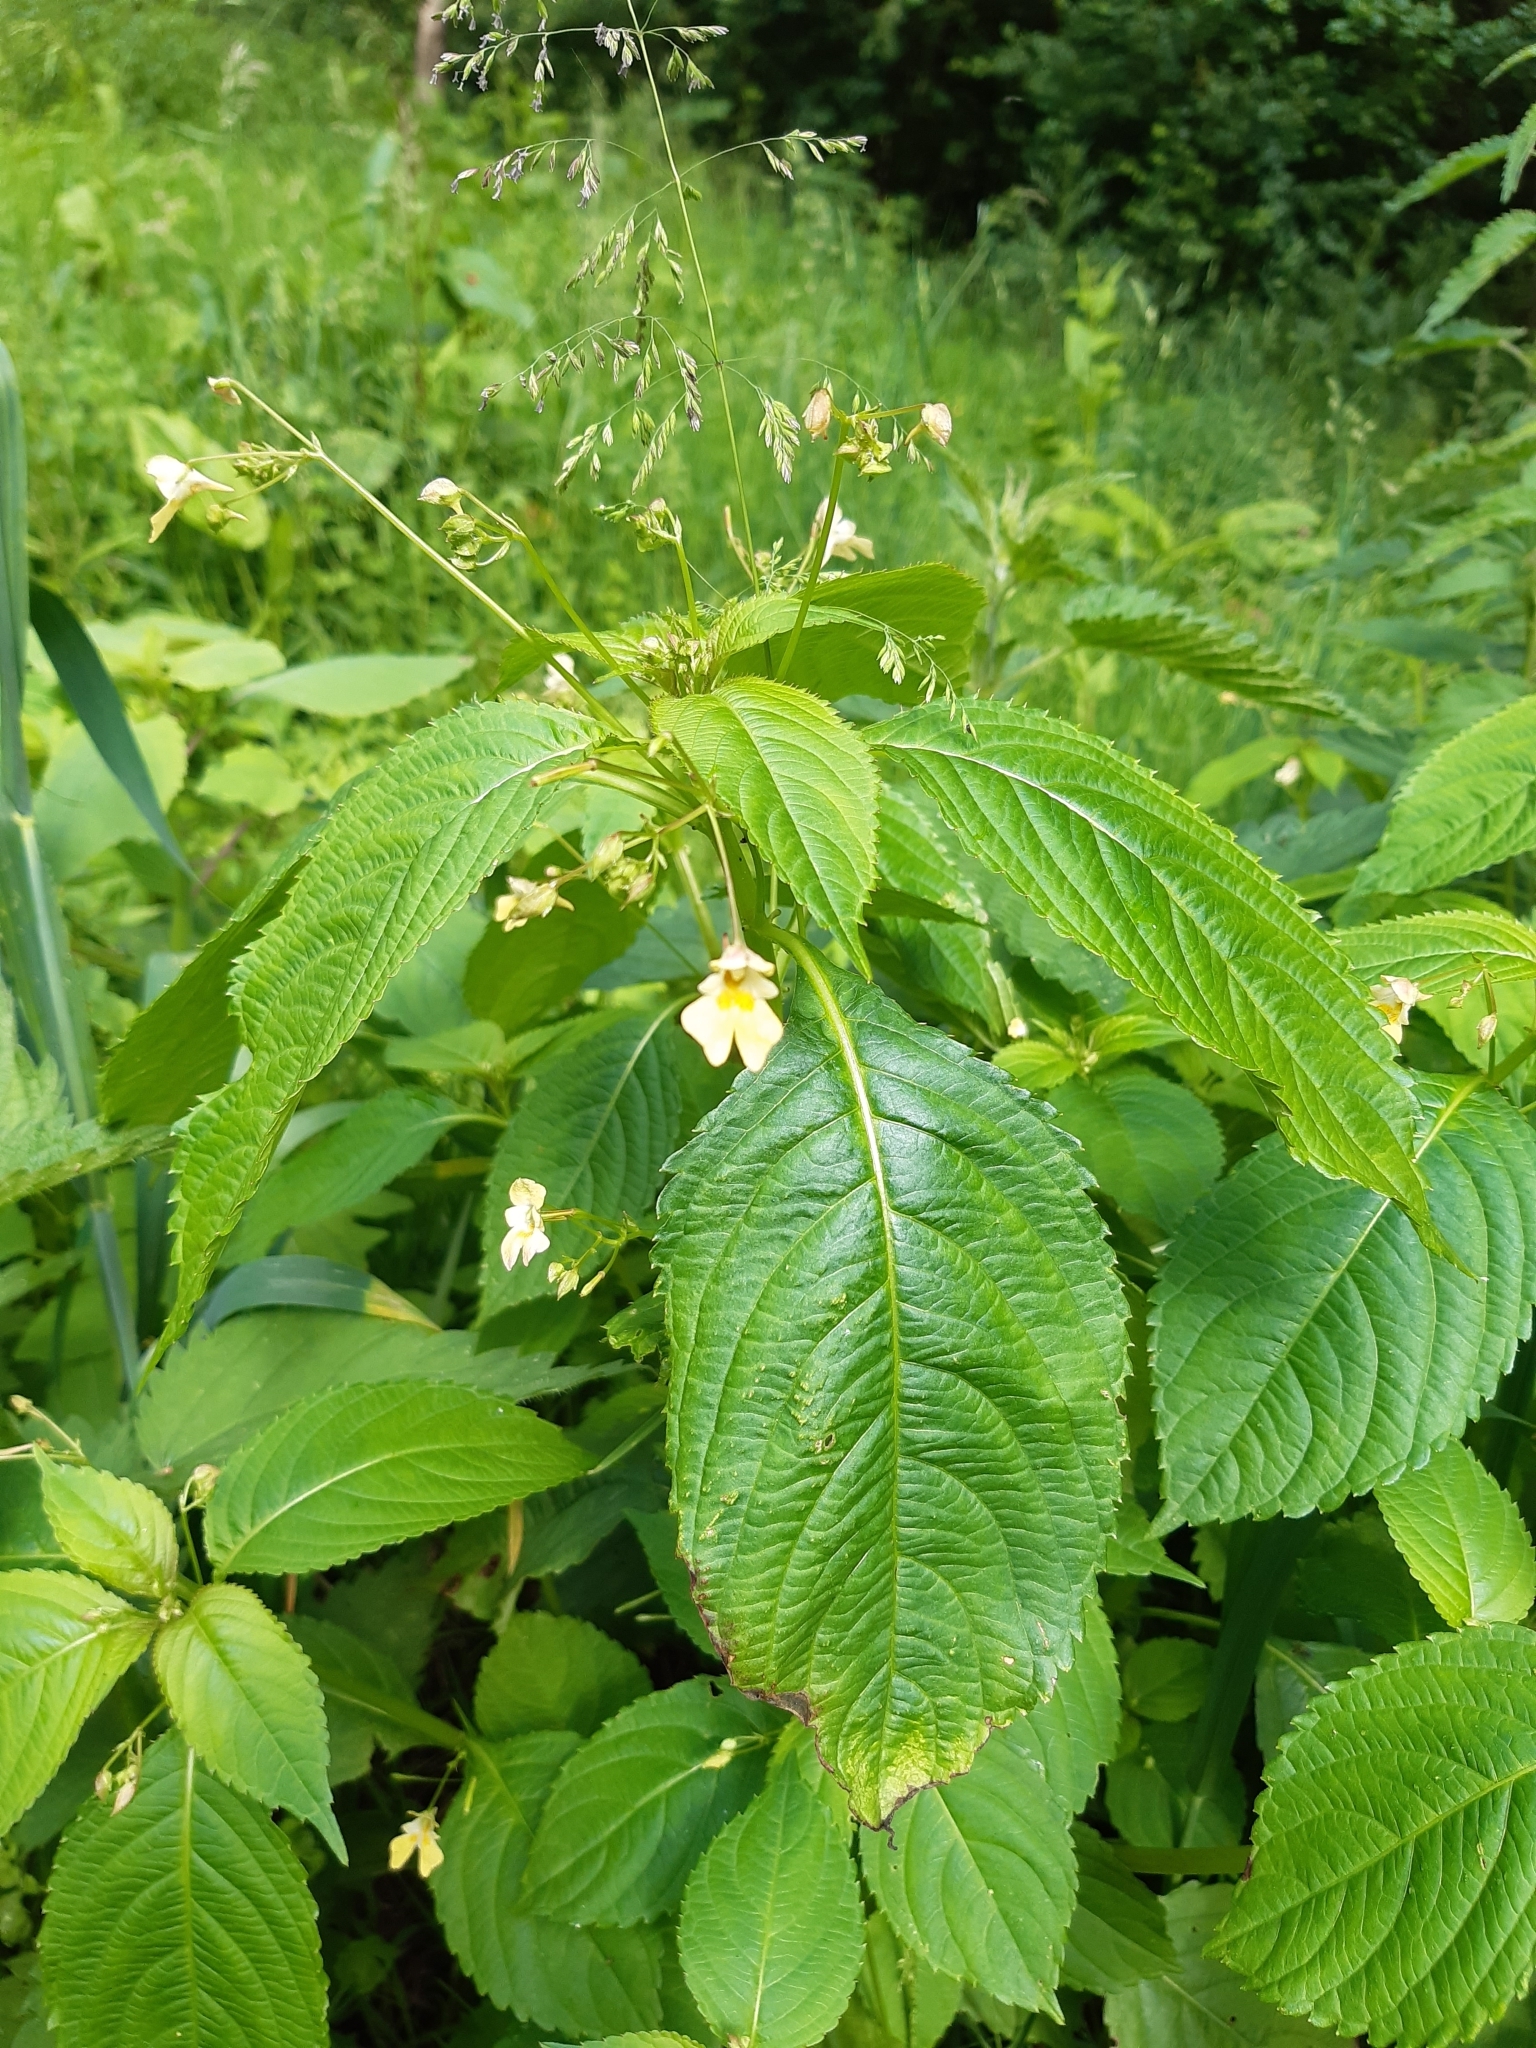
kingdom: Plantae
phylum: Tracheophyta
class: Magnoliopsida
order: Ericales
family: Balsaminaceae
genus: Impatiens
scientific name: Impatiens parviflora
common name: Small balsam
